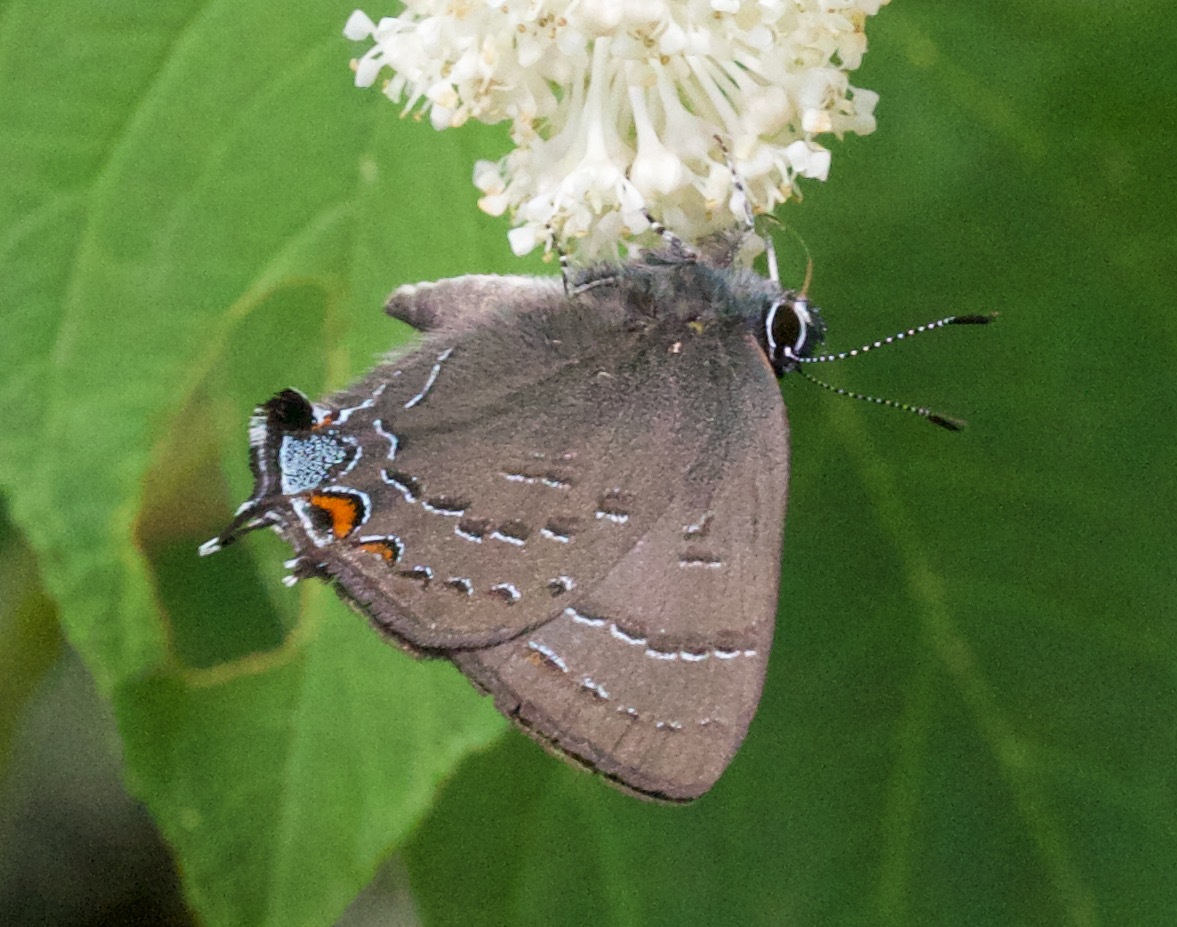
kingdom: Animalia
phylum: Arthropoda
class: Insecta
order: Lepidoptera
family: Lycaenidae
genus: Satyrium
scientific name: Satyrium calanus
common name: Banded hairstreak
